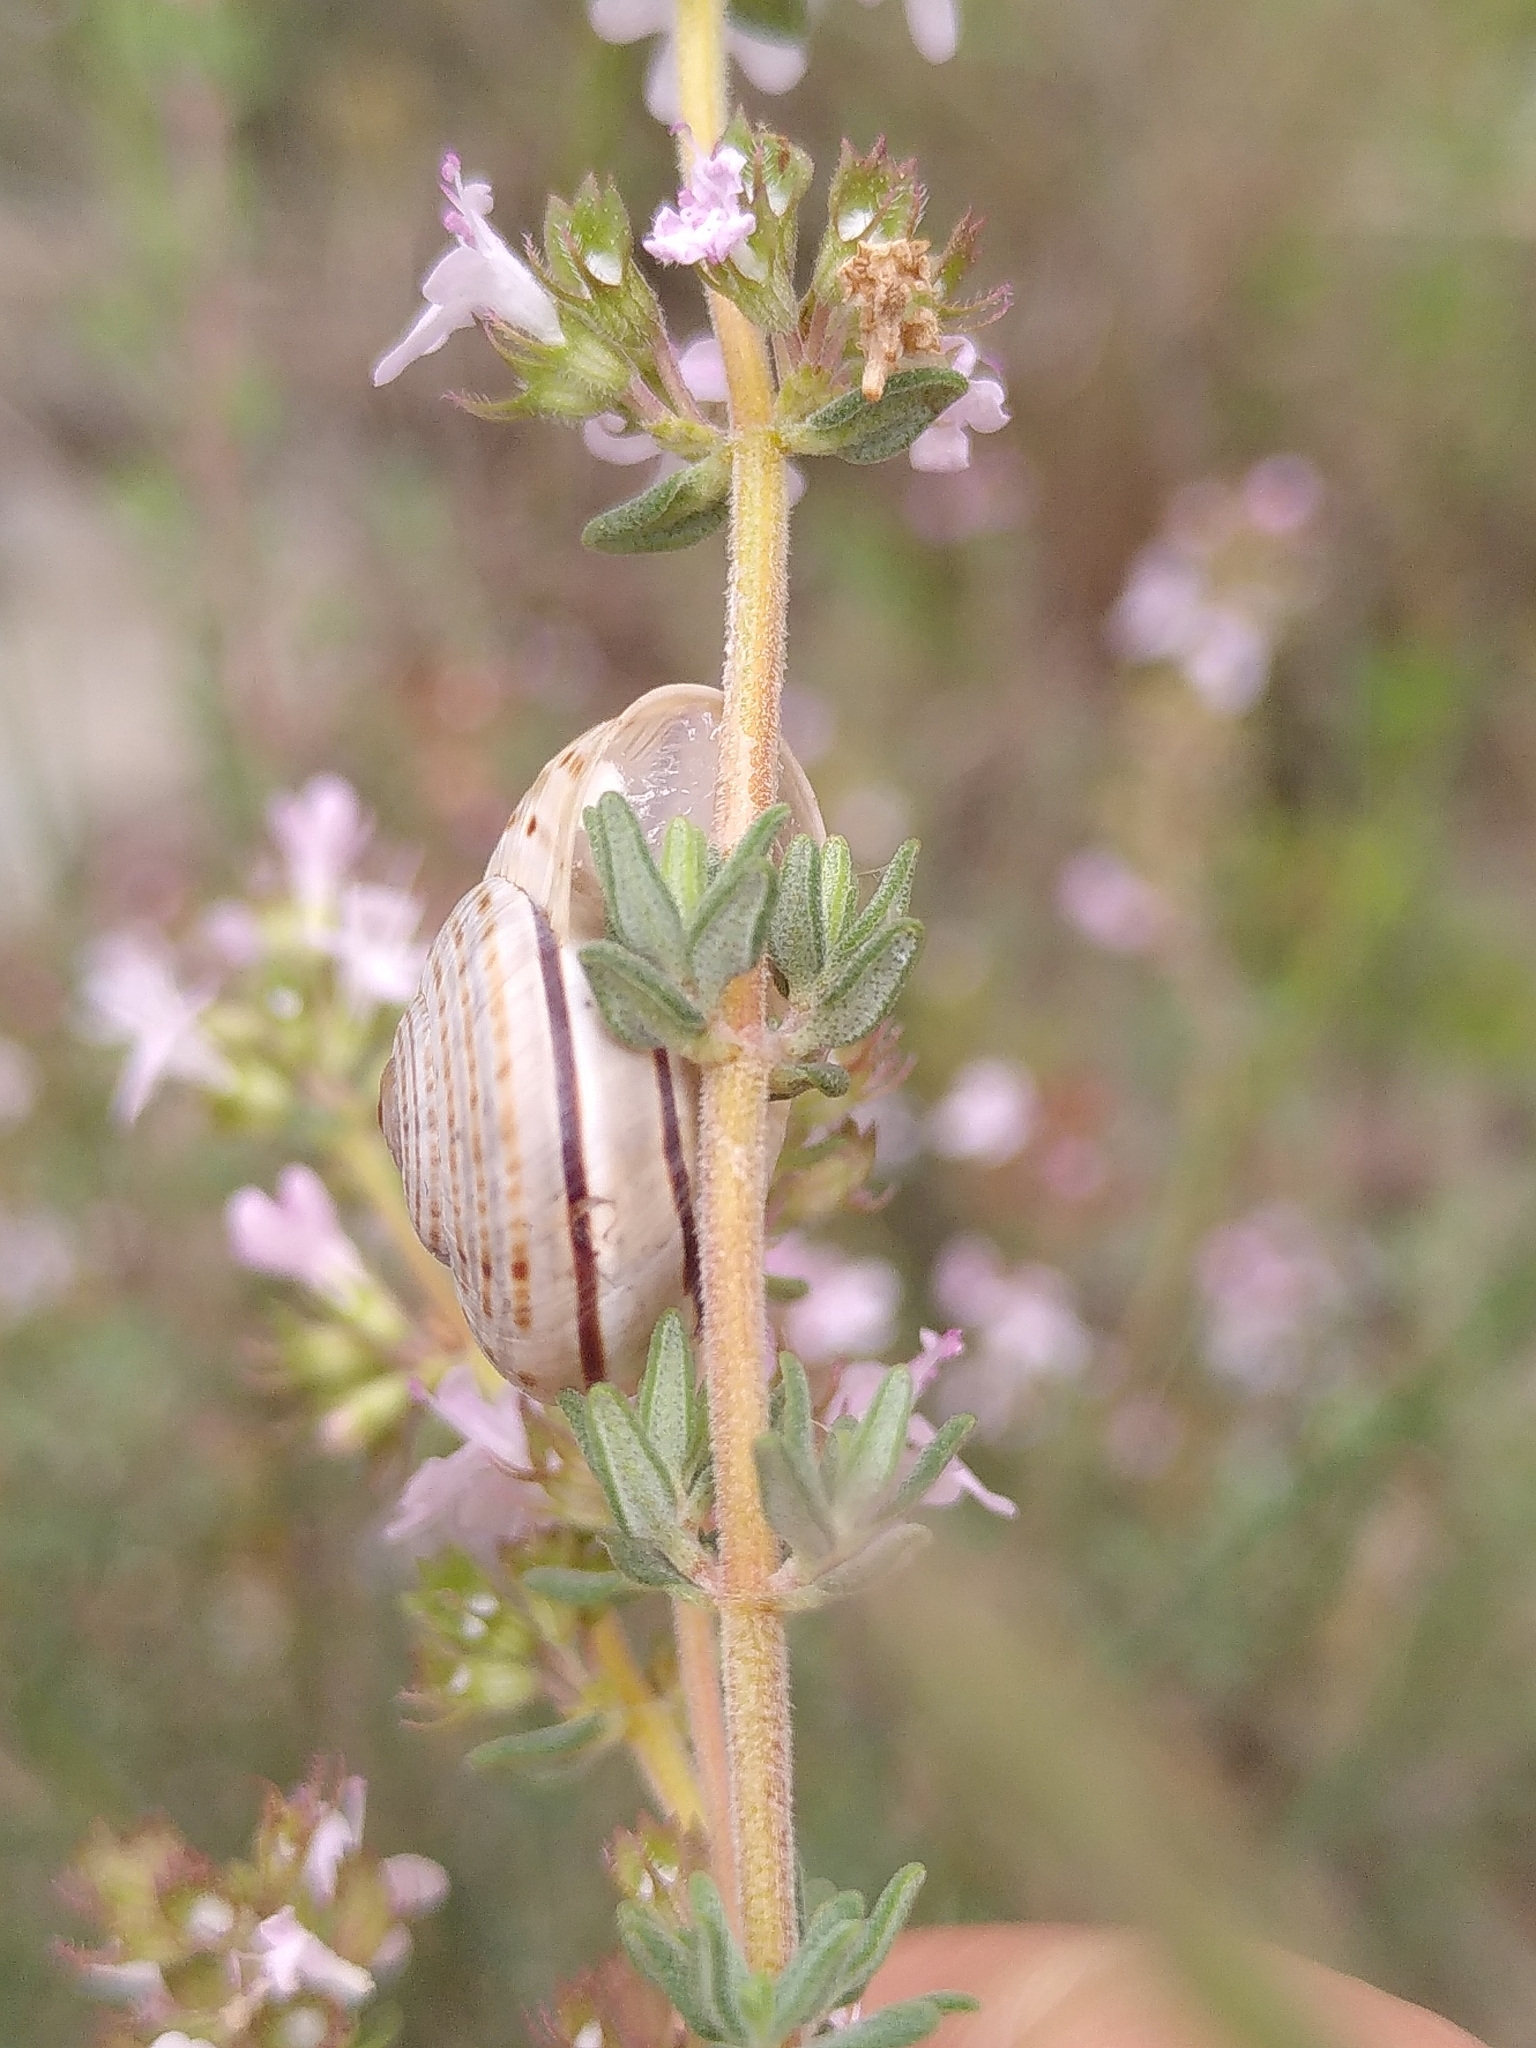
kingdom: Animalia
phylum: Mollusca
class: Gastropoda
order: Stylommatophora
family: Helicidae
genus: Pseudotachea
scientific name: Pseudotachea splendida
